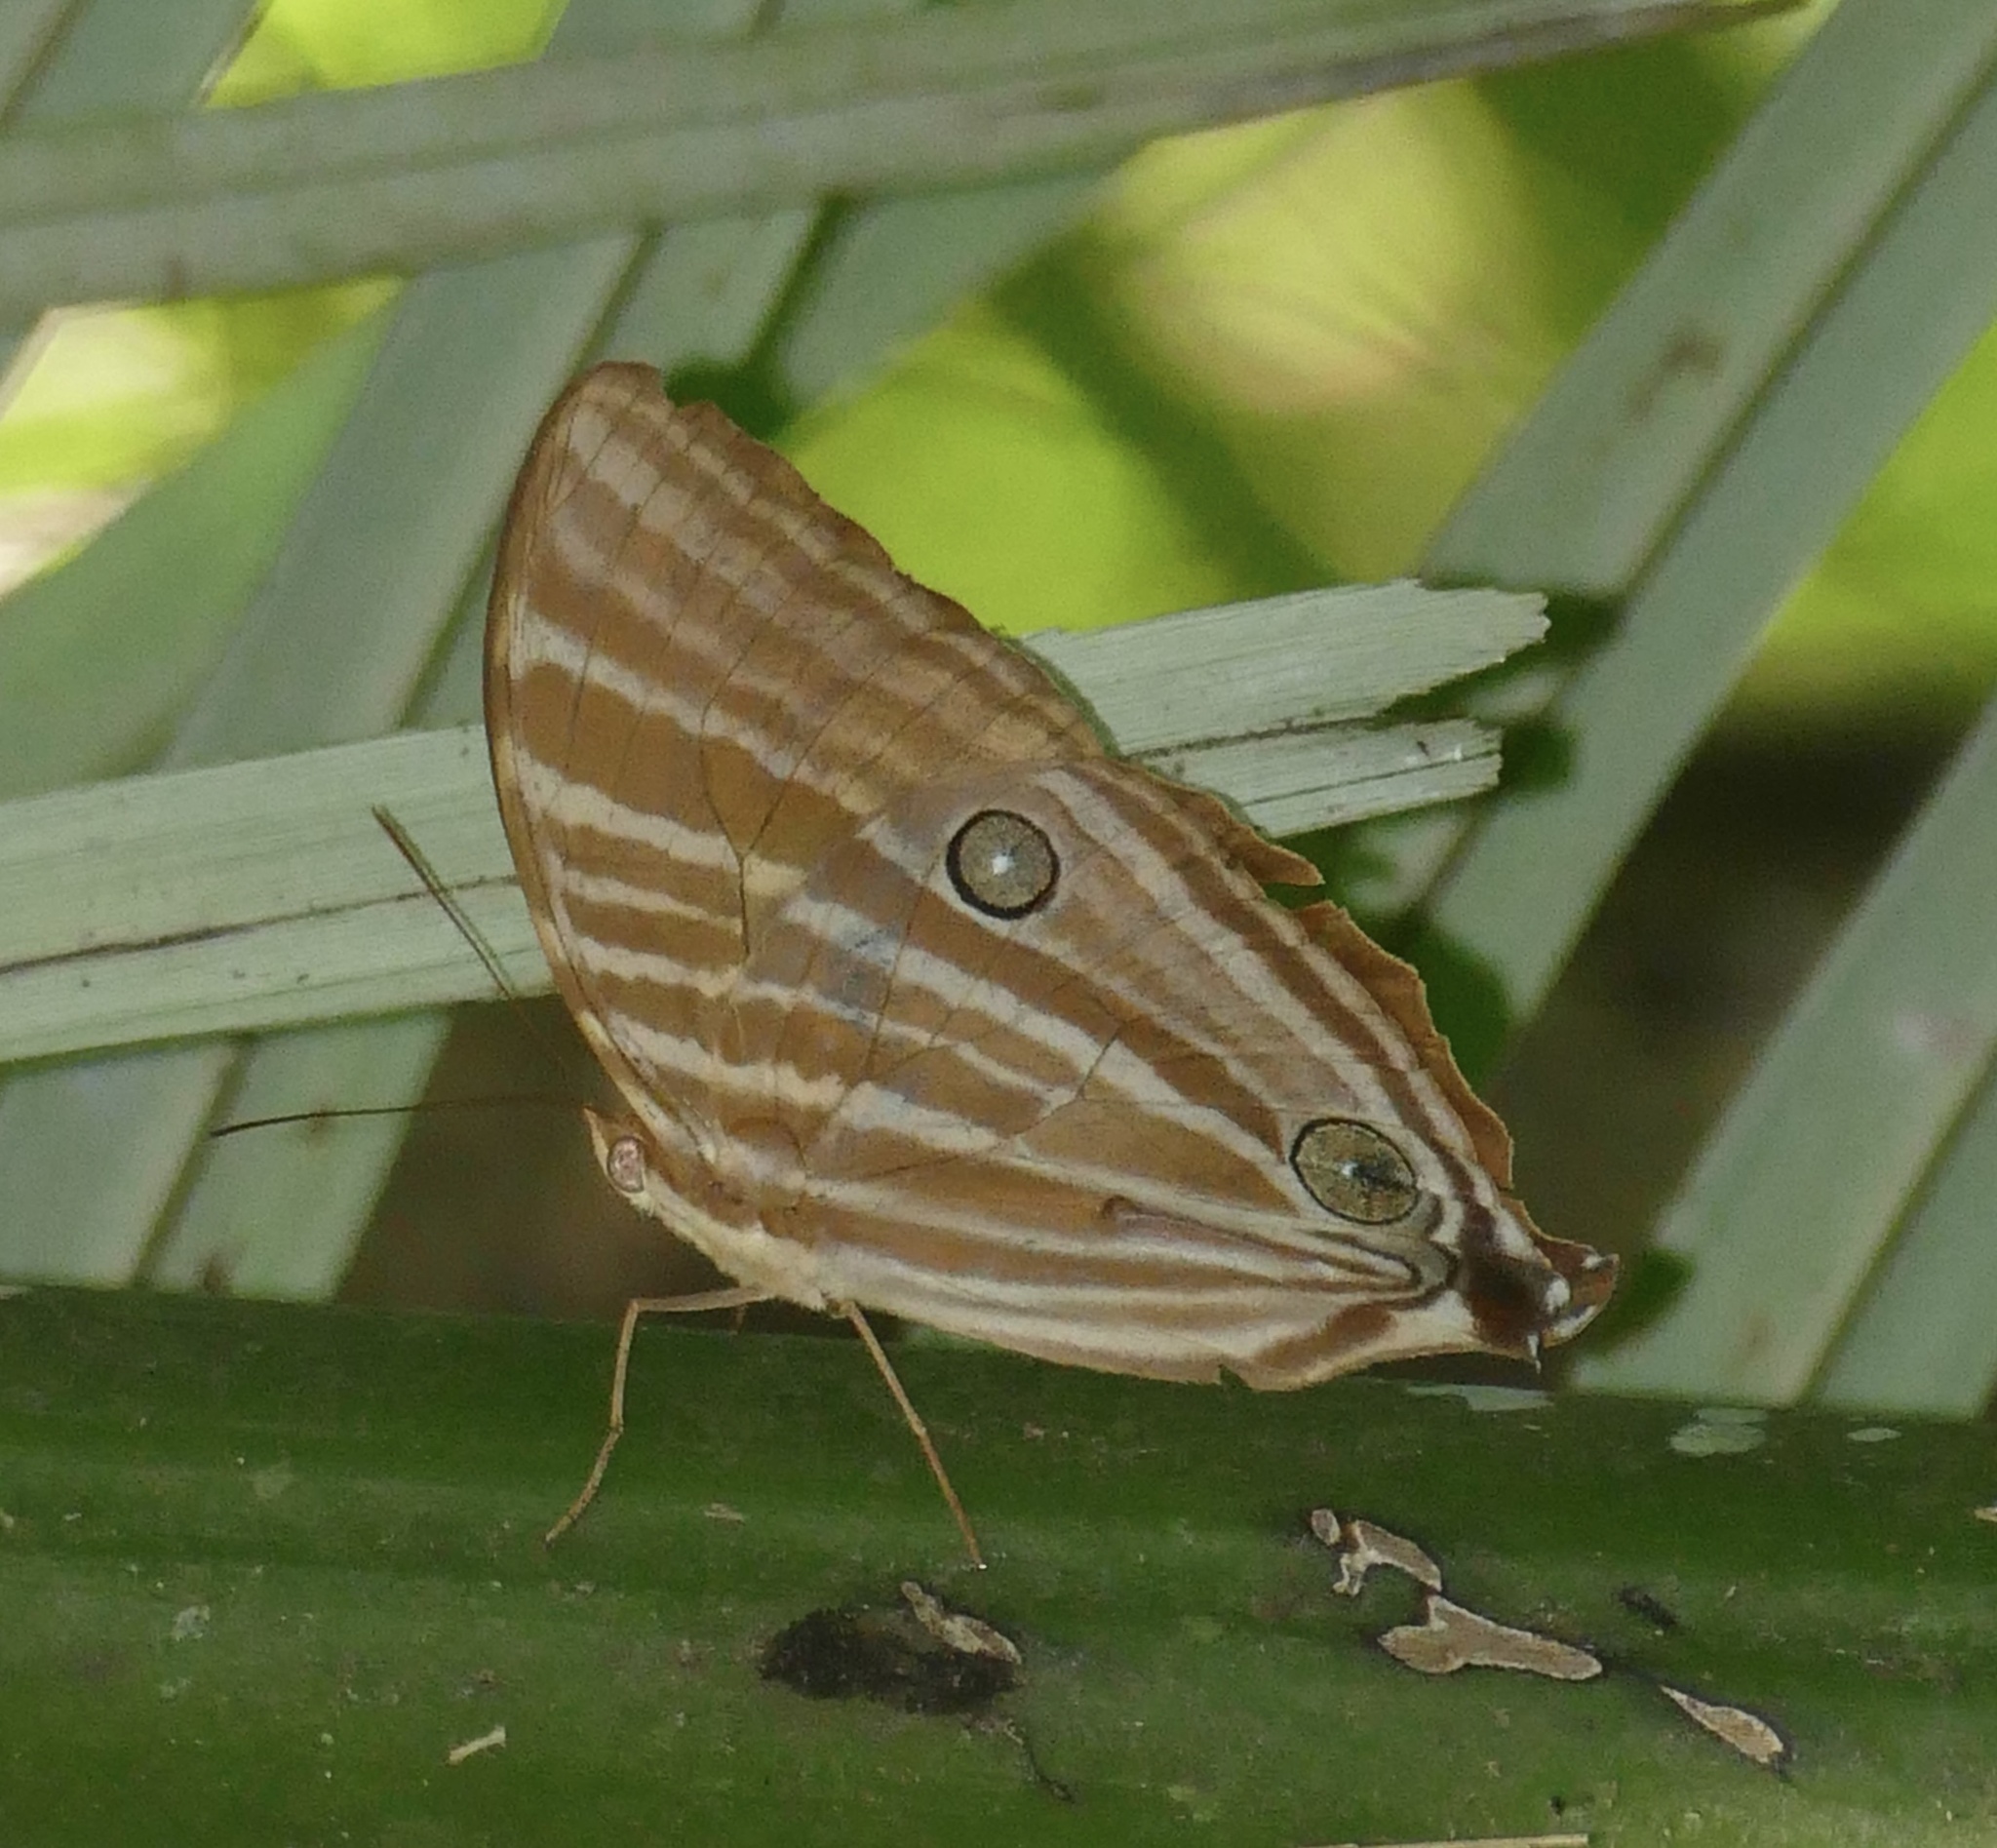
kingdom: Animalia
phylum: Arthropoda
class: Insecta
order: Lepidoptera
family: Nymphalidae
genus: Amathusia
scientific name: Amathusia virgata
